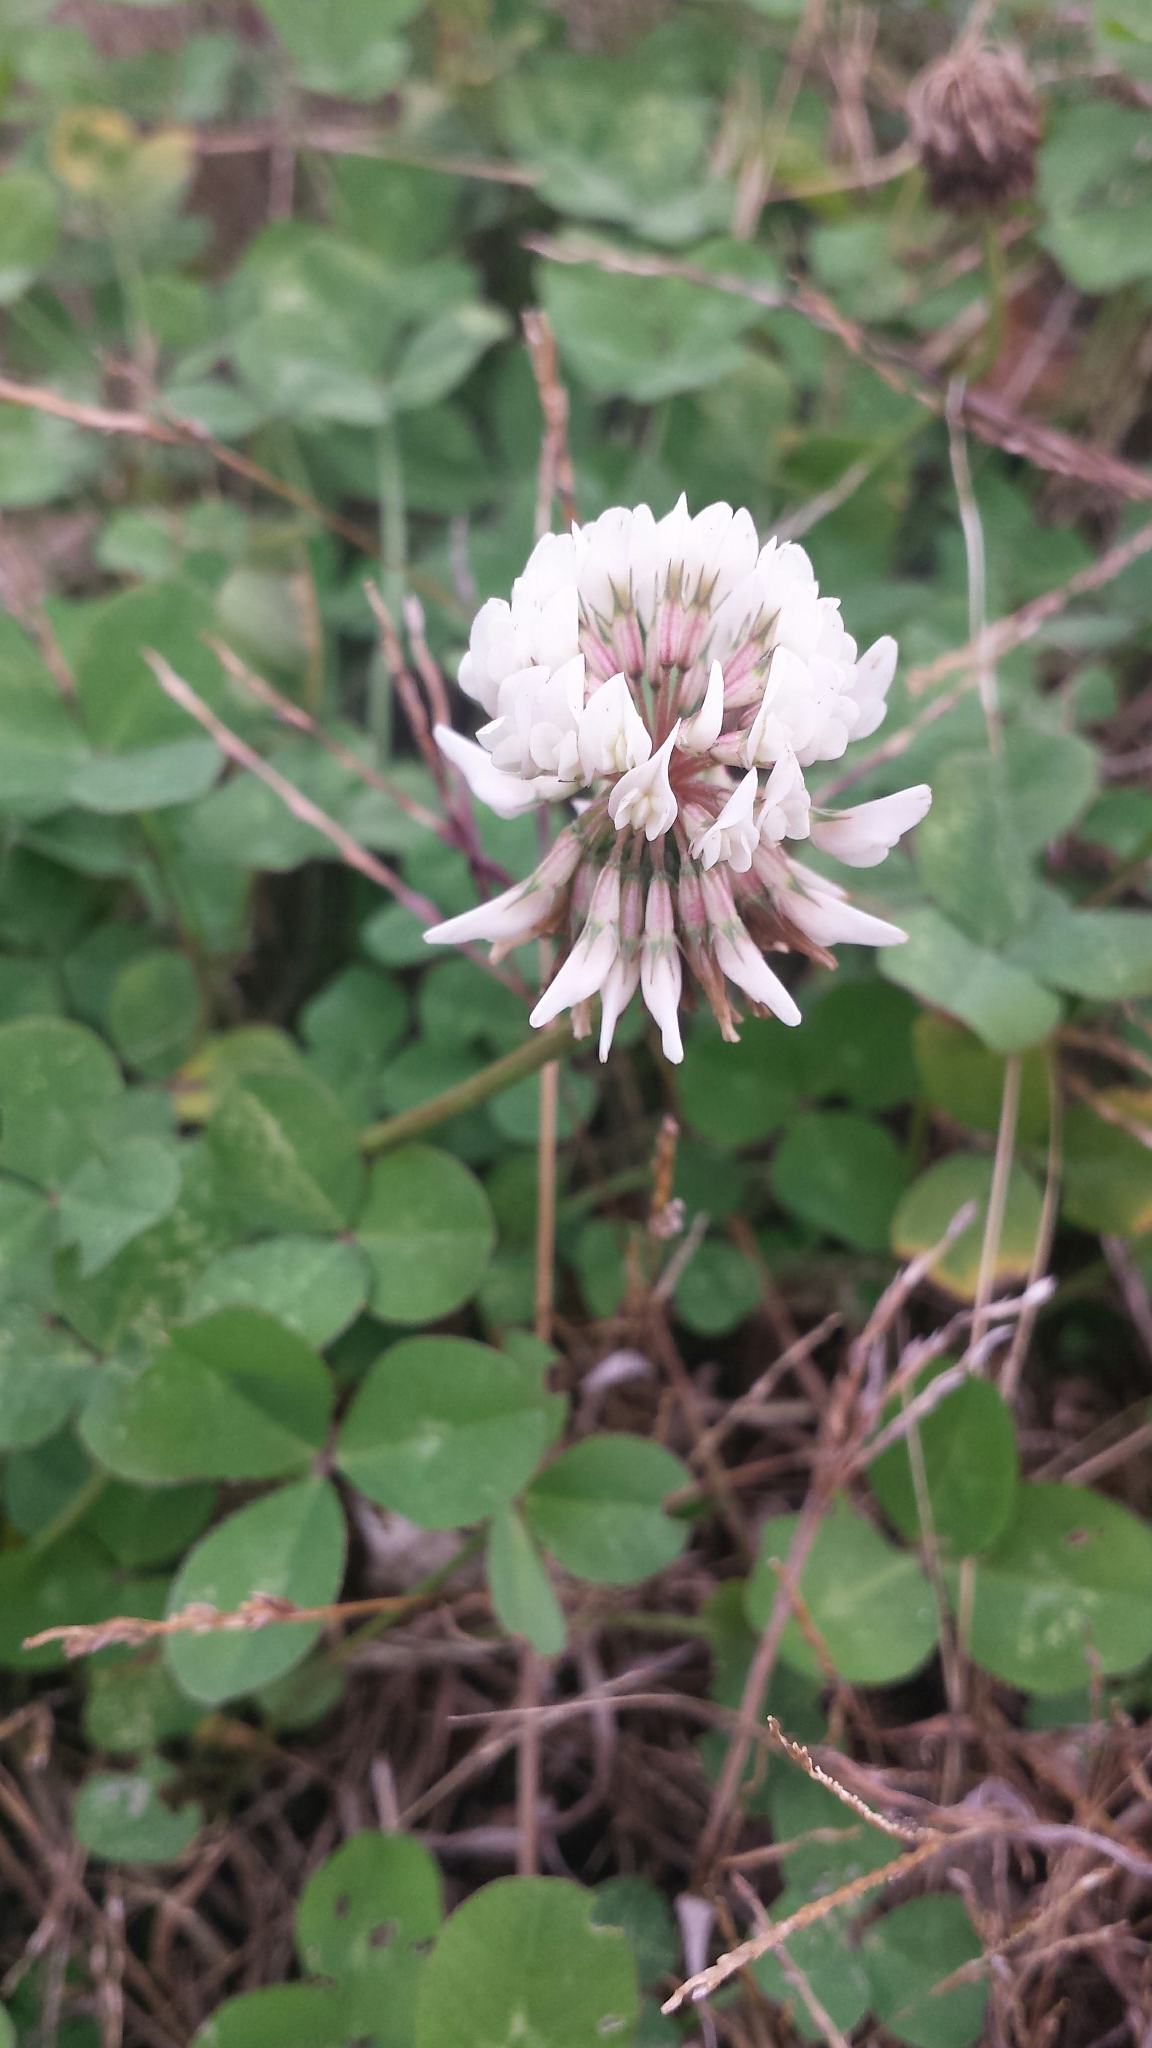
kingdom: Plantae
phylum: Tracheophyta
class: Magnoliopsida
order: Fabales
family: Fabaceae
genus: Trifolium
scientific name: Trifolium repens
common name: White clover
